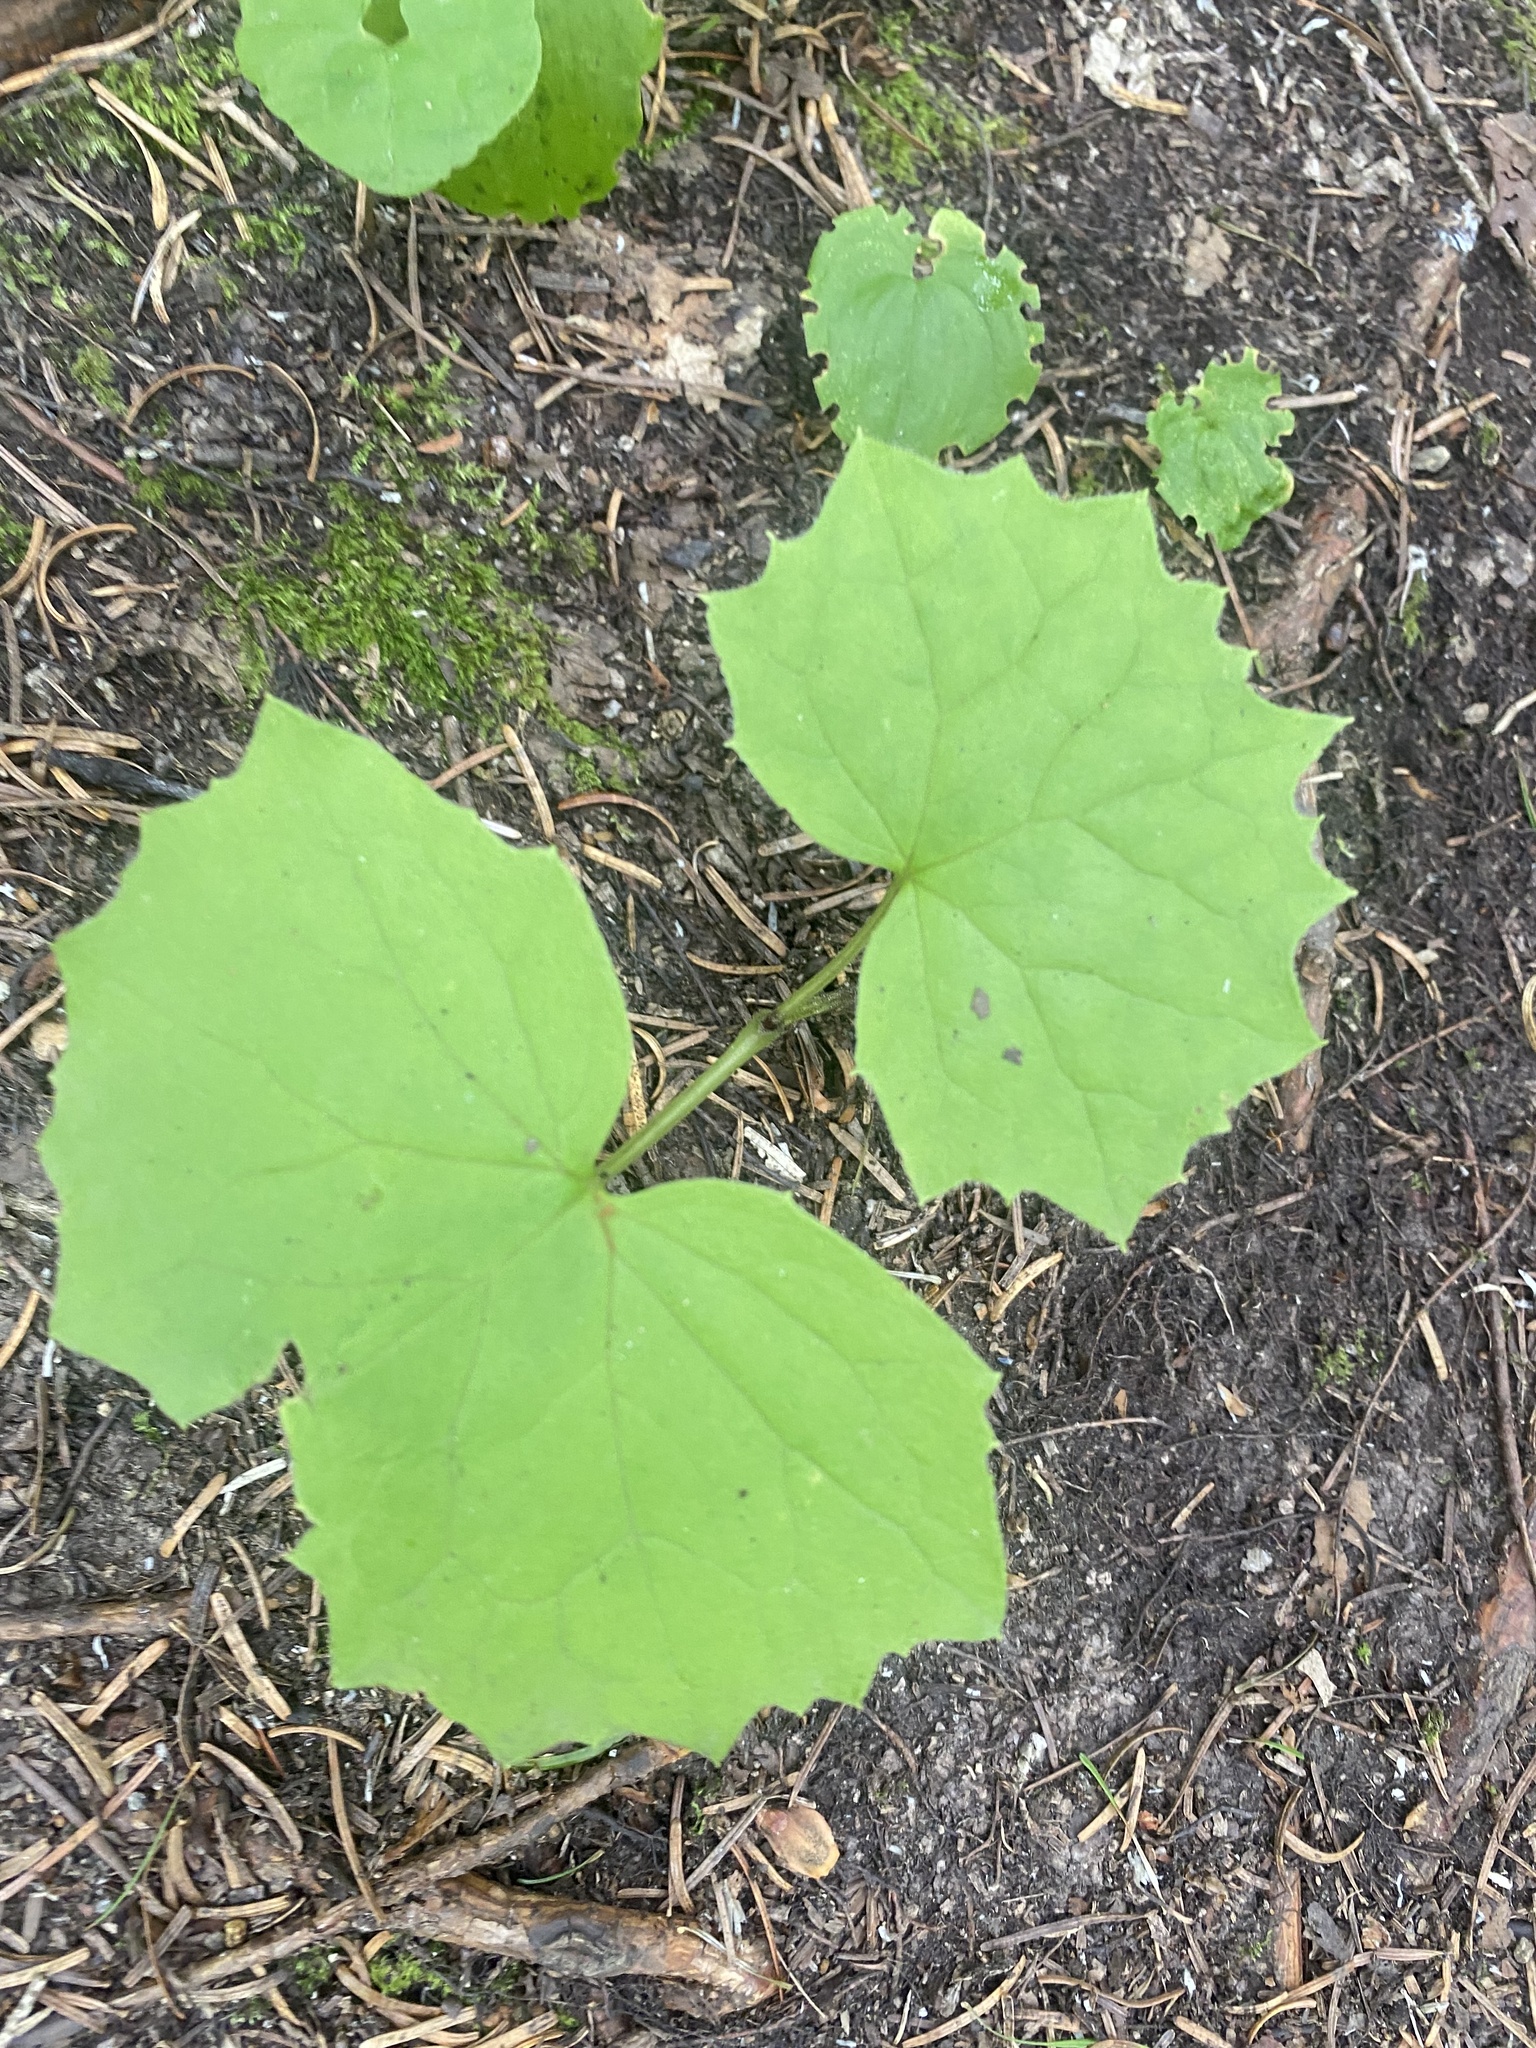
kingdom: Plantae
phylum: Tracheophyta
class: Magnoliopsida
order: Asterales
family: Asteraceae
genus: Parasenecio
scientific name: Parasenecio kamtschaticus
